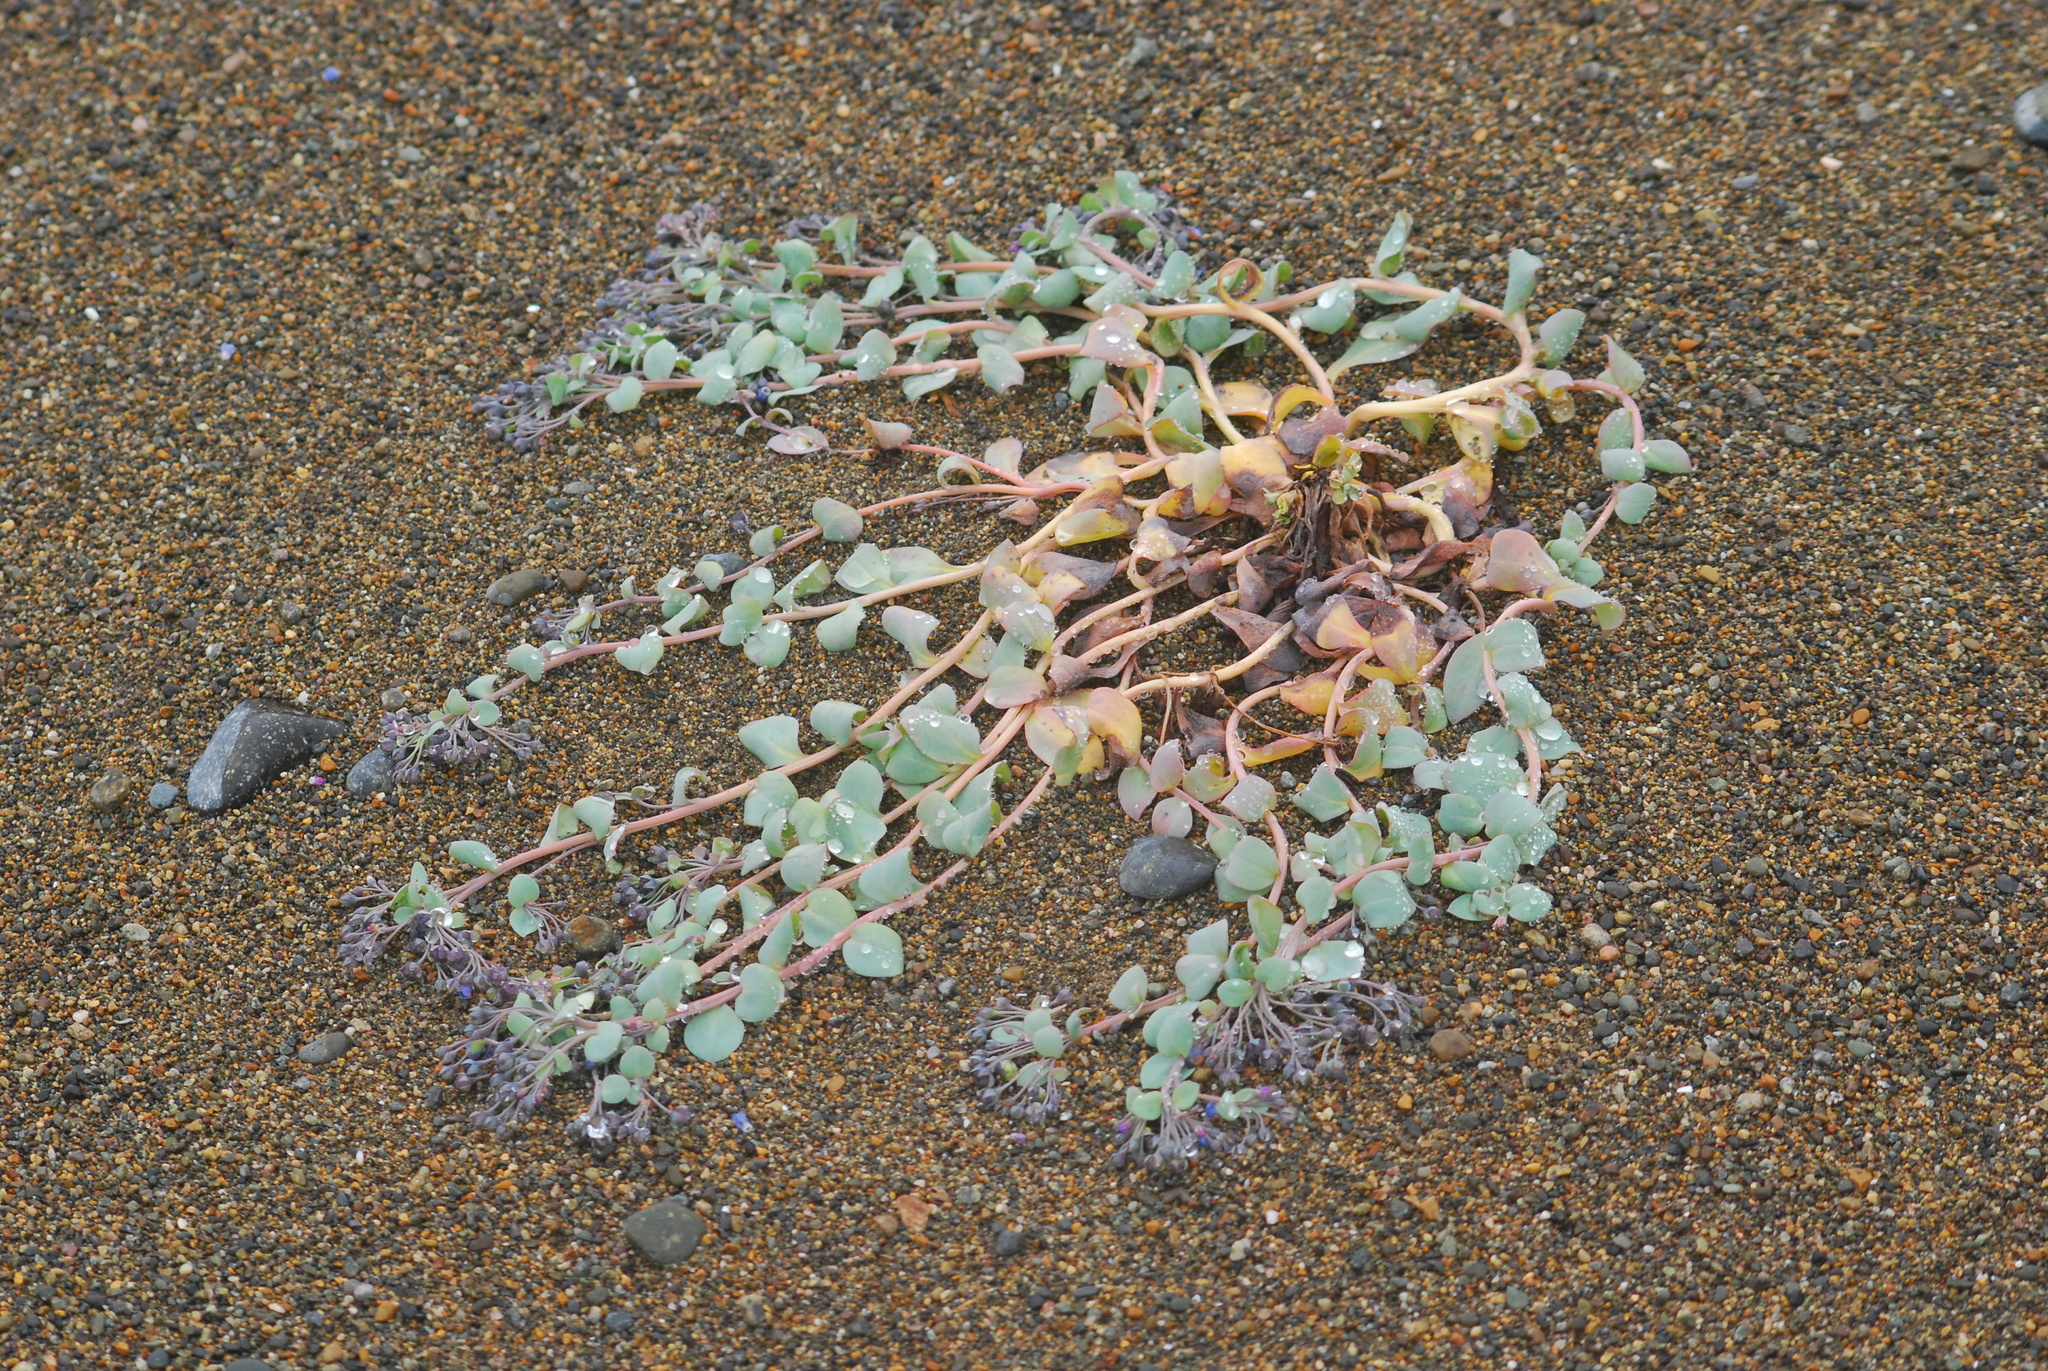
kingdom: Plantae
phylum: Tracheophyta
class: Magnoliopsida
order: Boraginales
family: Boraginaceae
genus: Mertensia
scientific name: Mertensia maritima
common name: Oysterplant
